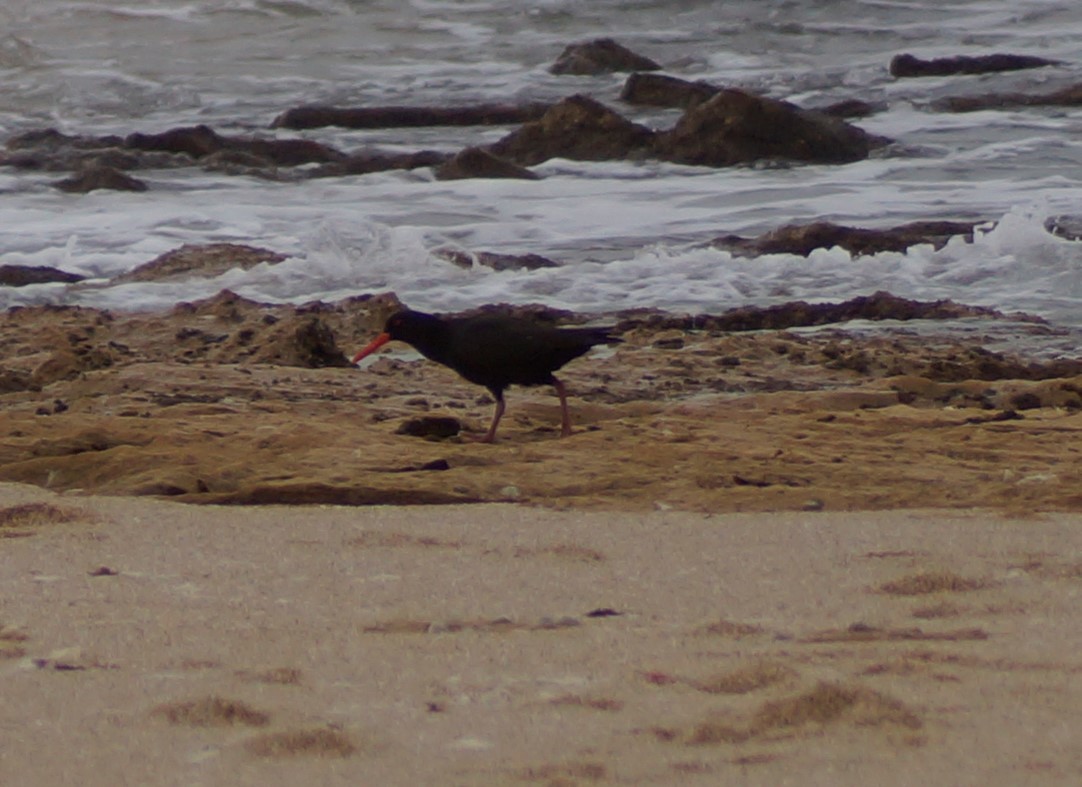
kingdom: Animalia
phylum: Chordata
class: Aves
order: Charadriiformes
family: Haematopodidae
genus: Haematopus
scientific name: Haematopus fuliginosus
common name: Sooty oystercatcher
